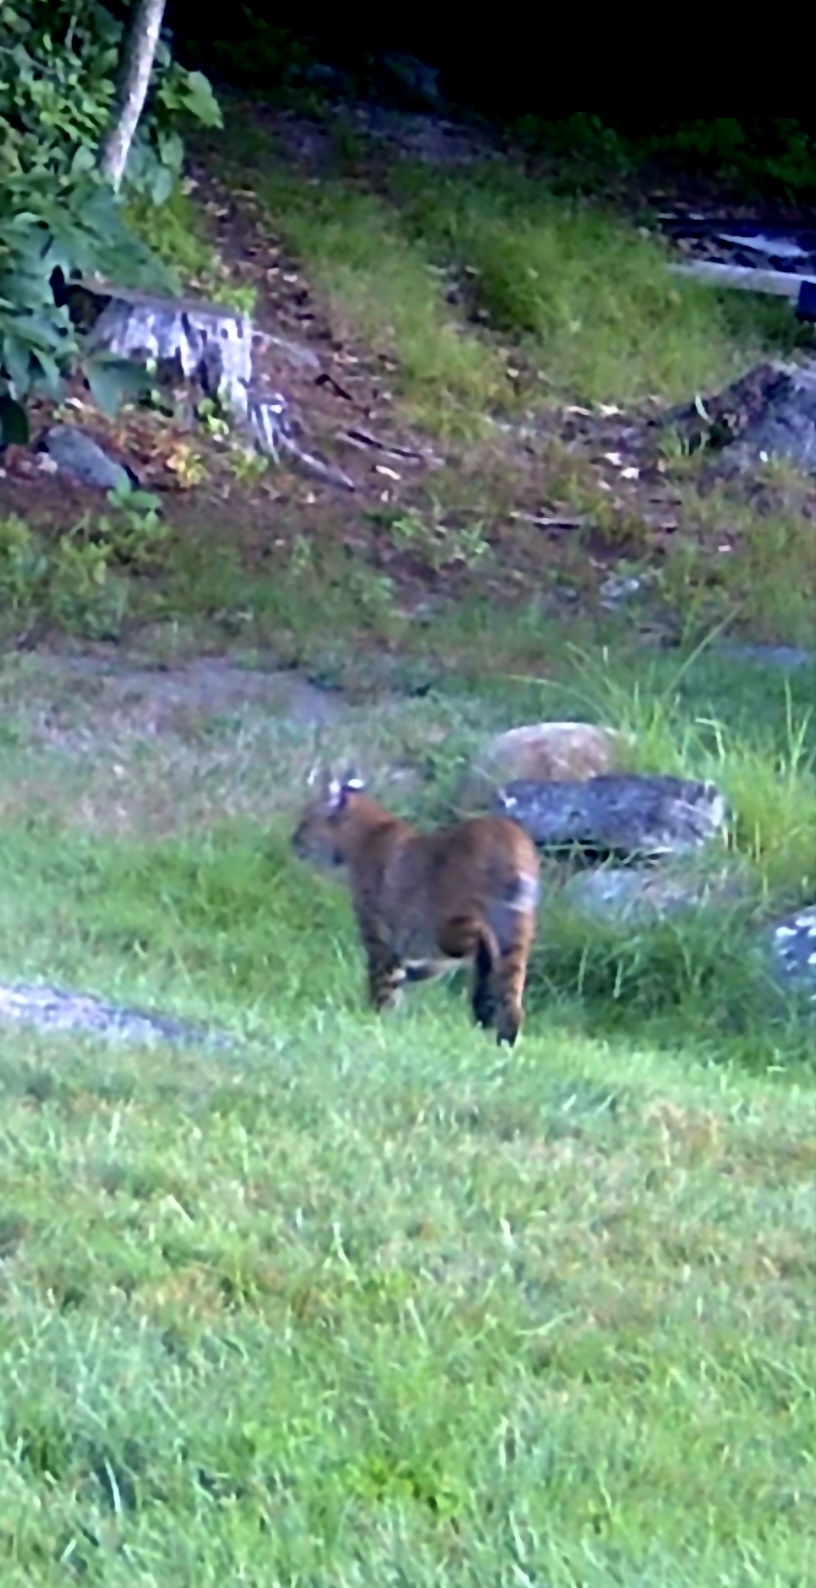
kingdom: Animalia
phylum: Chordata
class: Mammalia
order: Carnivora
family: Felidae
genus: Lynx
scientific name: Lynx rufus
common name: Bobcat
